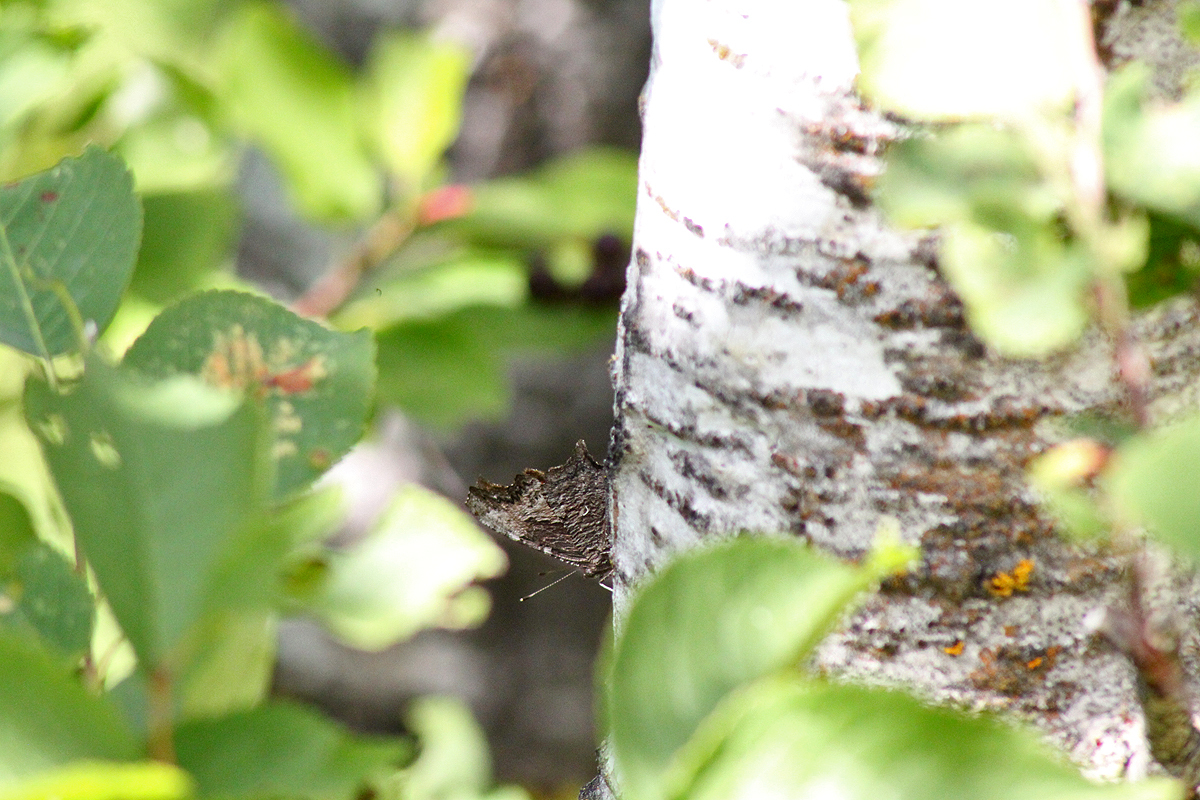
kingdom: Animalia
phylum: Arthropoda
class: Insecta
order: Lepidoptera
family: Nymphalidae
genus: Polygonia
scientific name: Polygonia progne
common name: Gray comma
